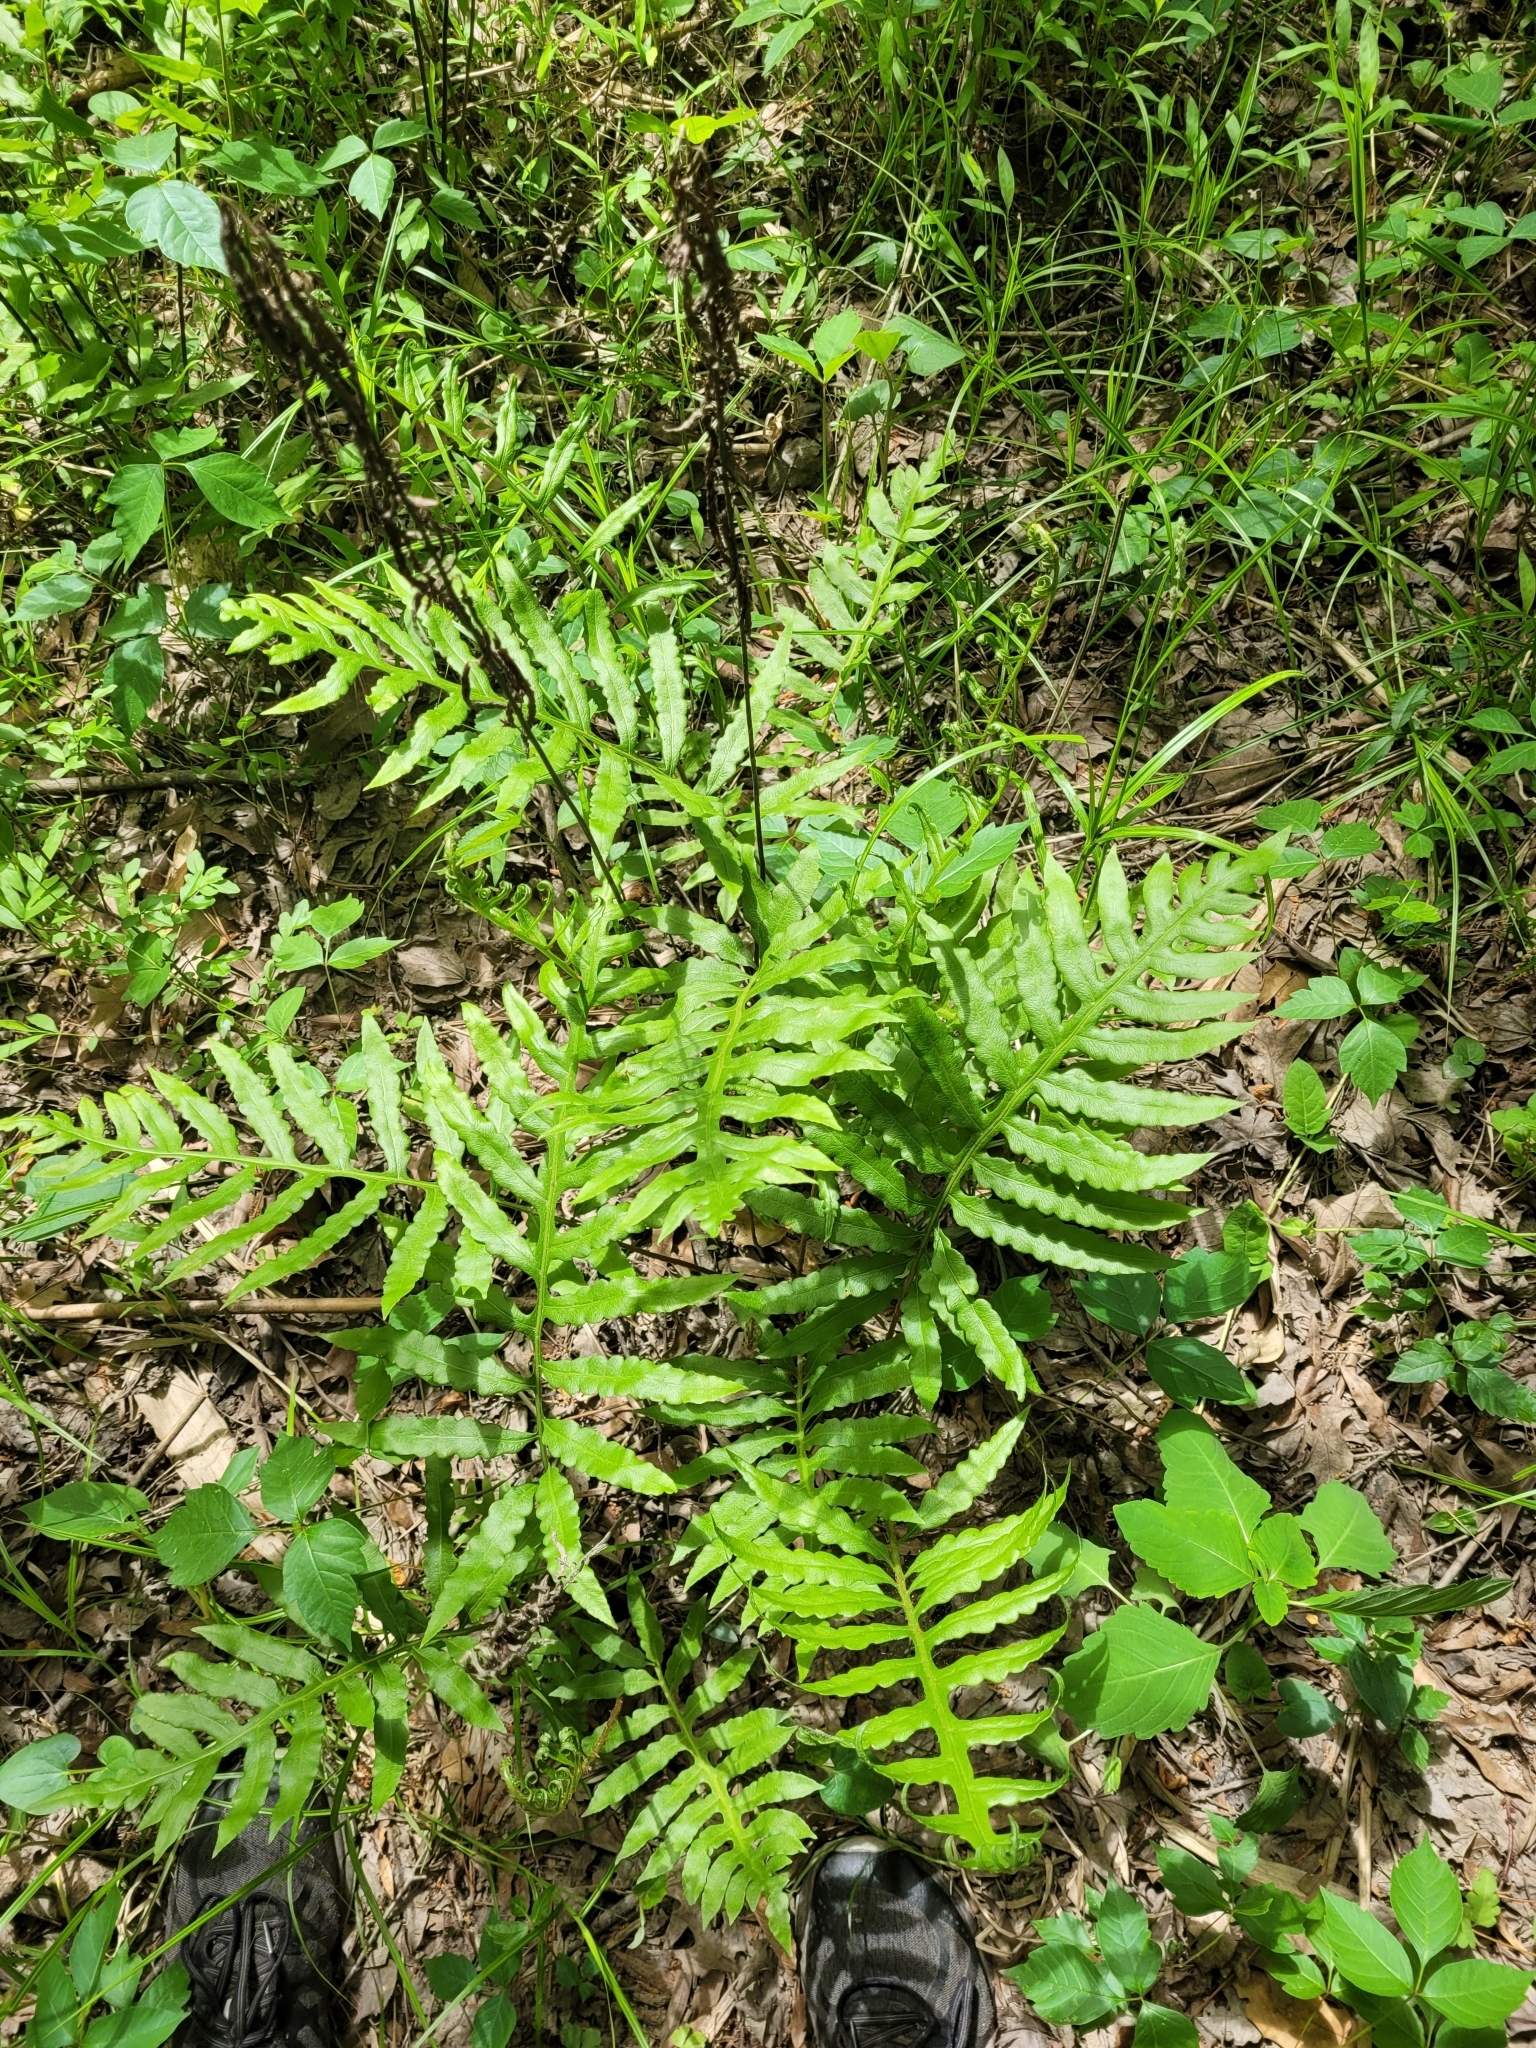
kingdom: Plantae
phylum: Tracheophyta
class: Polypodiopsida
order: Polypodiales
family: Blechnaceae
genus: Lorinseria
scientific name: Lorinseria areolata
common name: Dwarf chain fern
